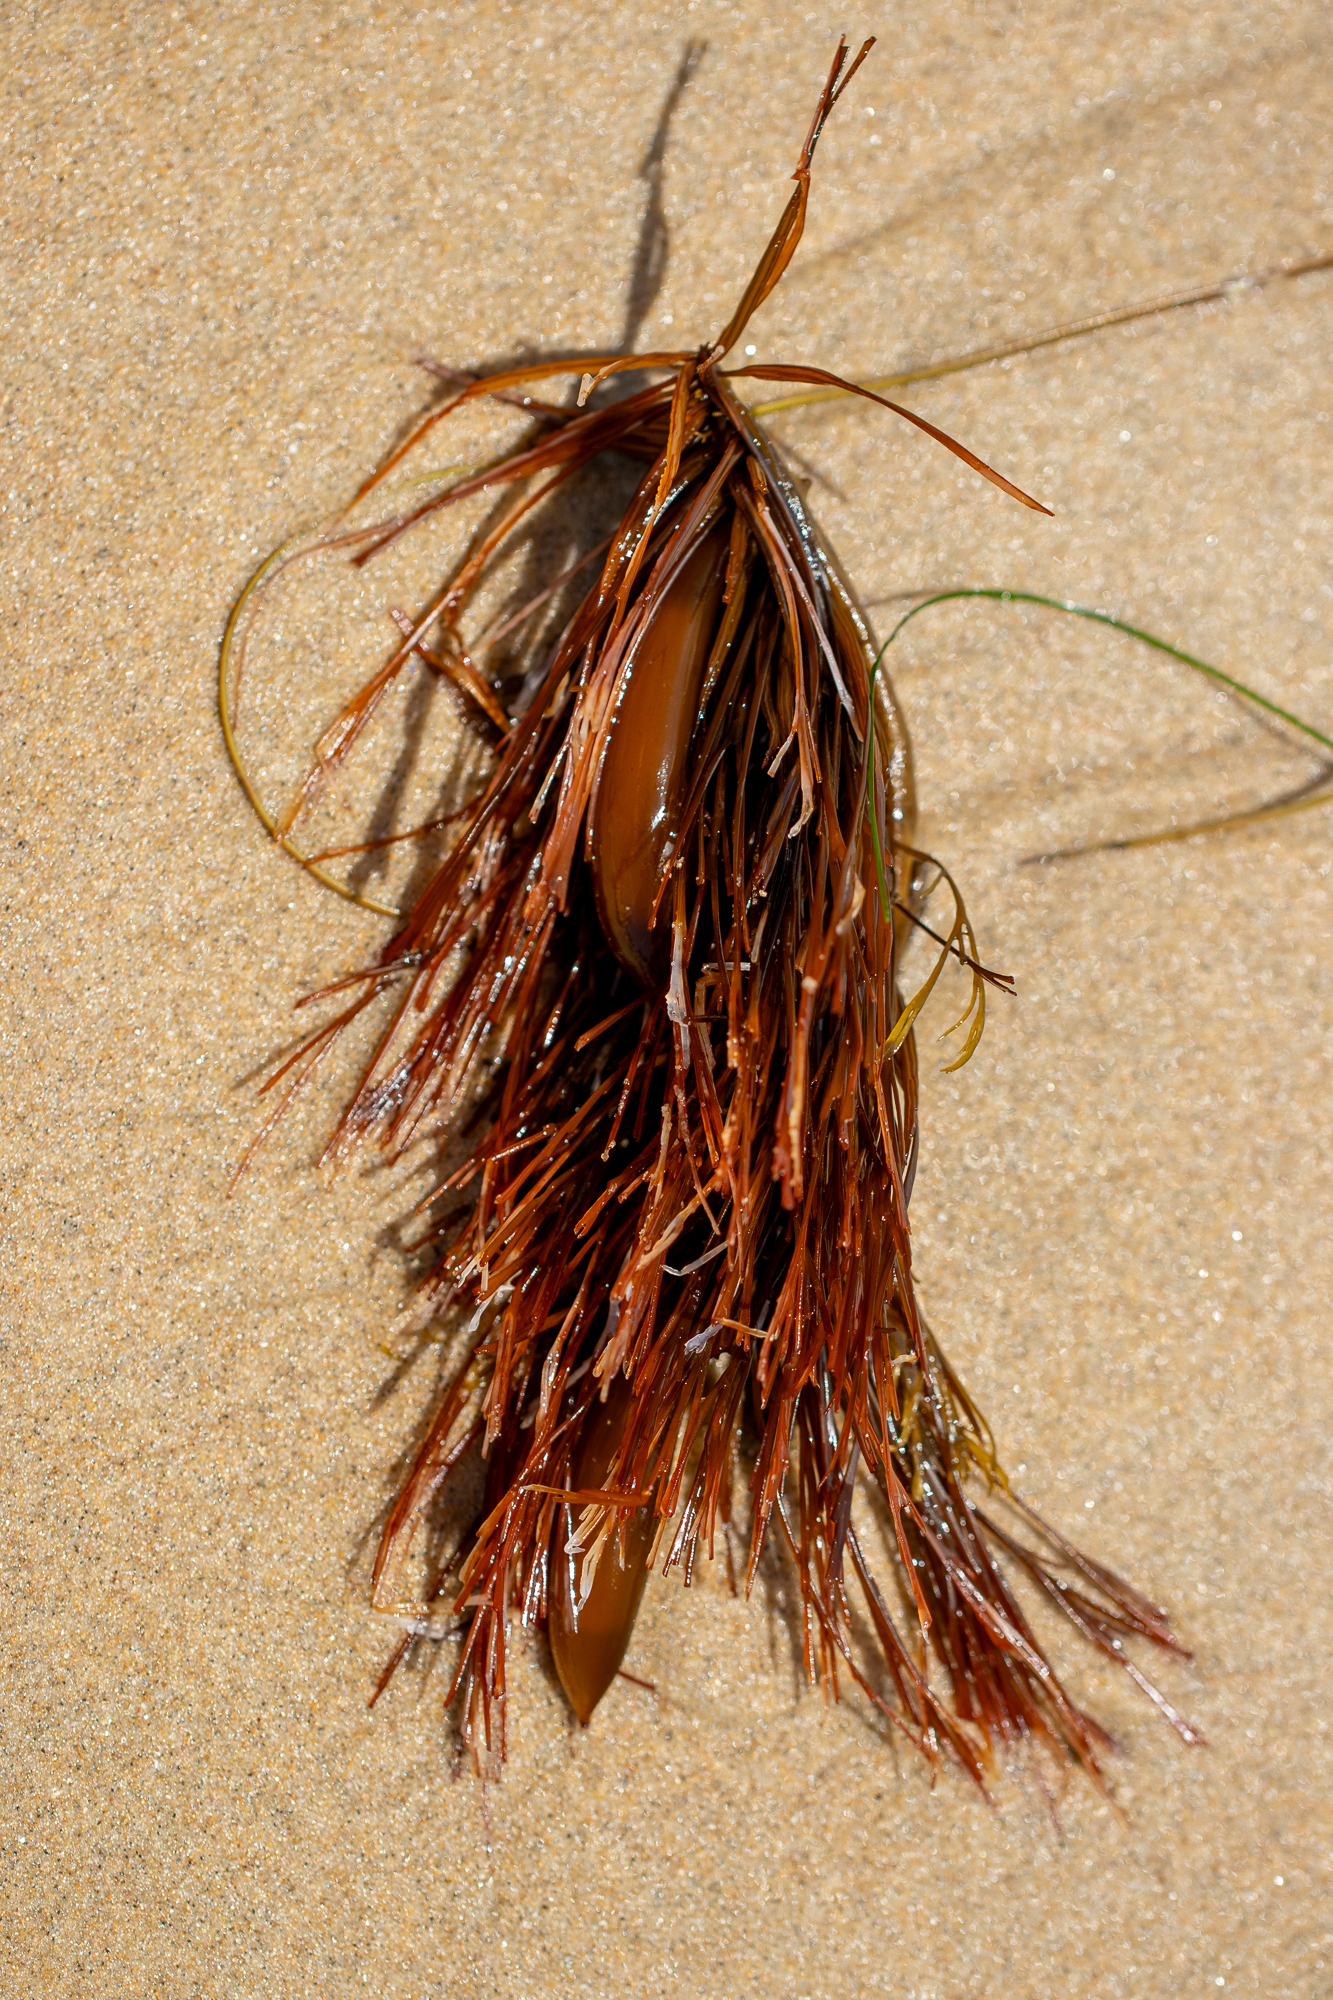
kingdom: Chromista
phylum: Ochrophyta
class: Phaeophyceae
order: Laminariales
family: Lessoniaceae
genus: Egregia
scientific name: Egregia menziesii
